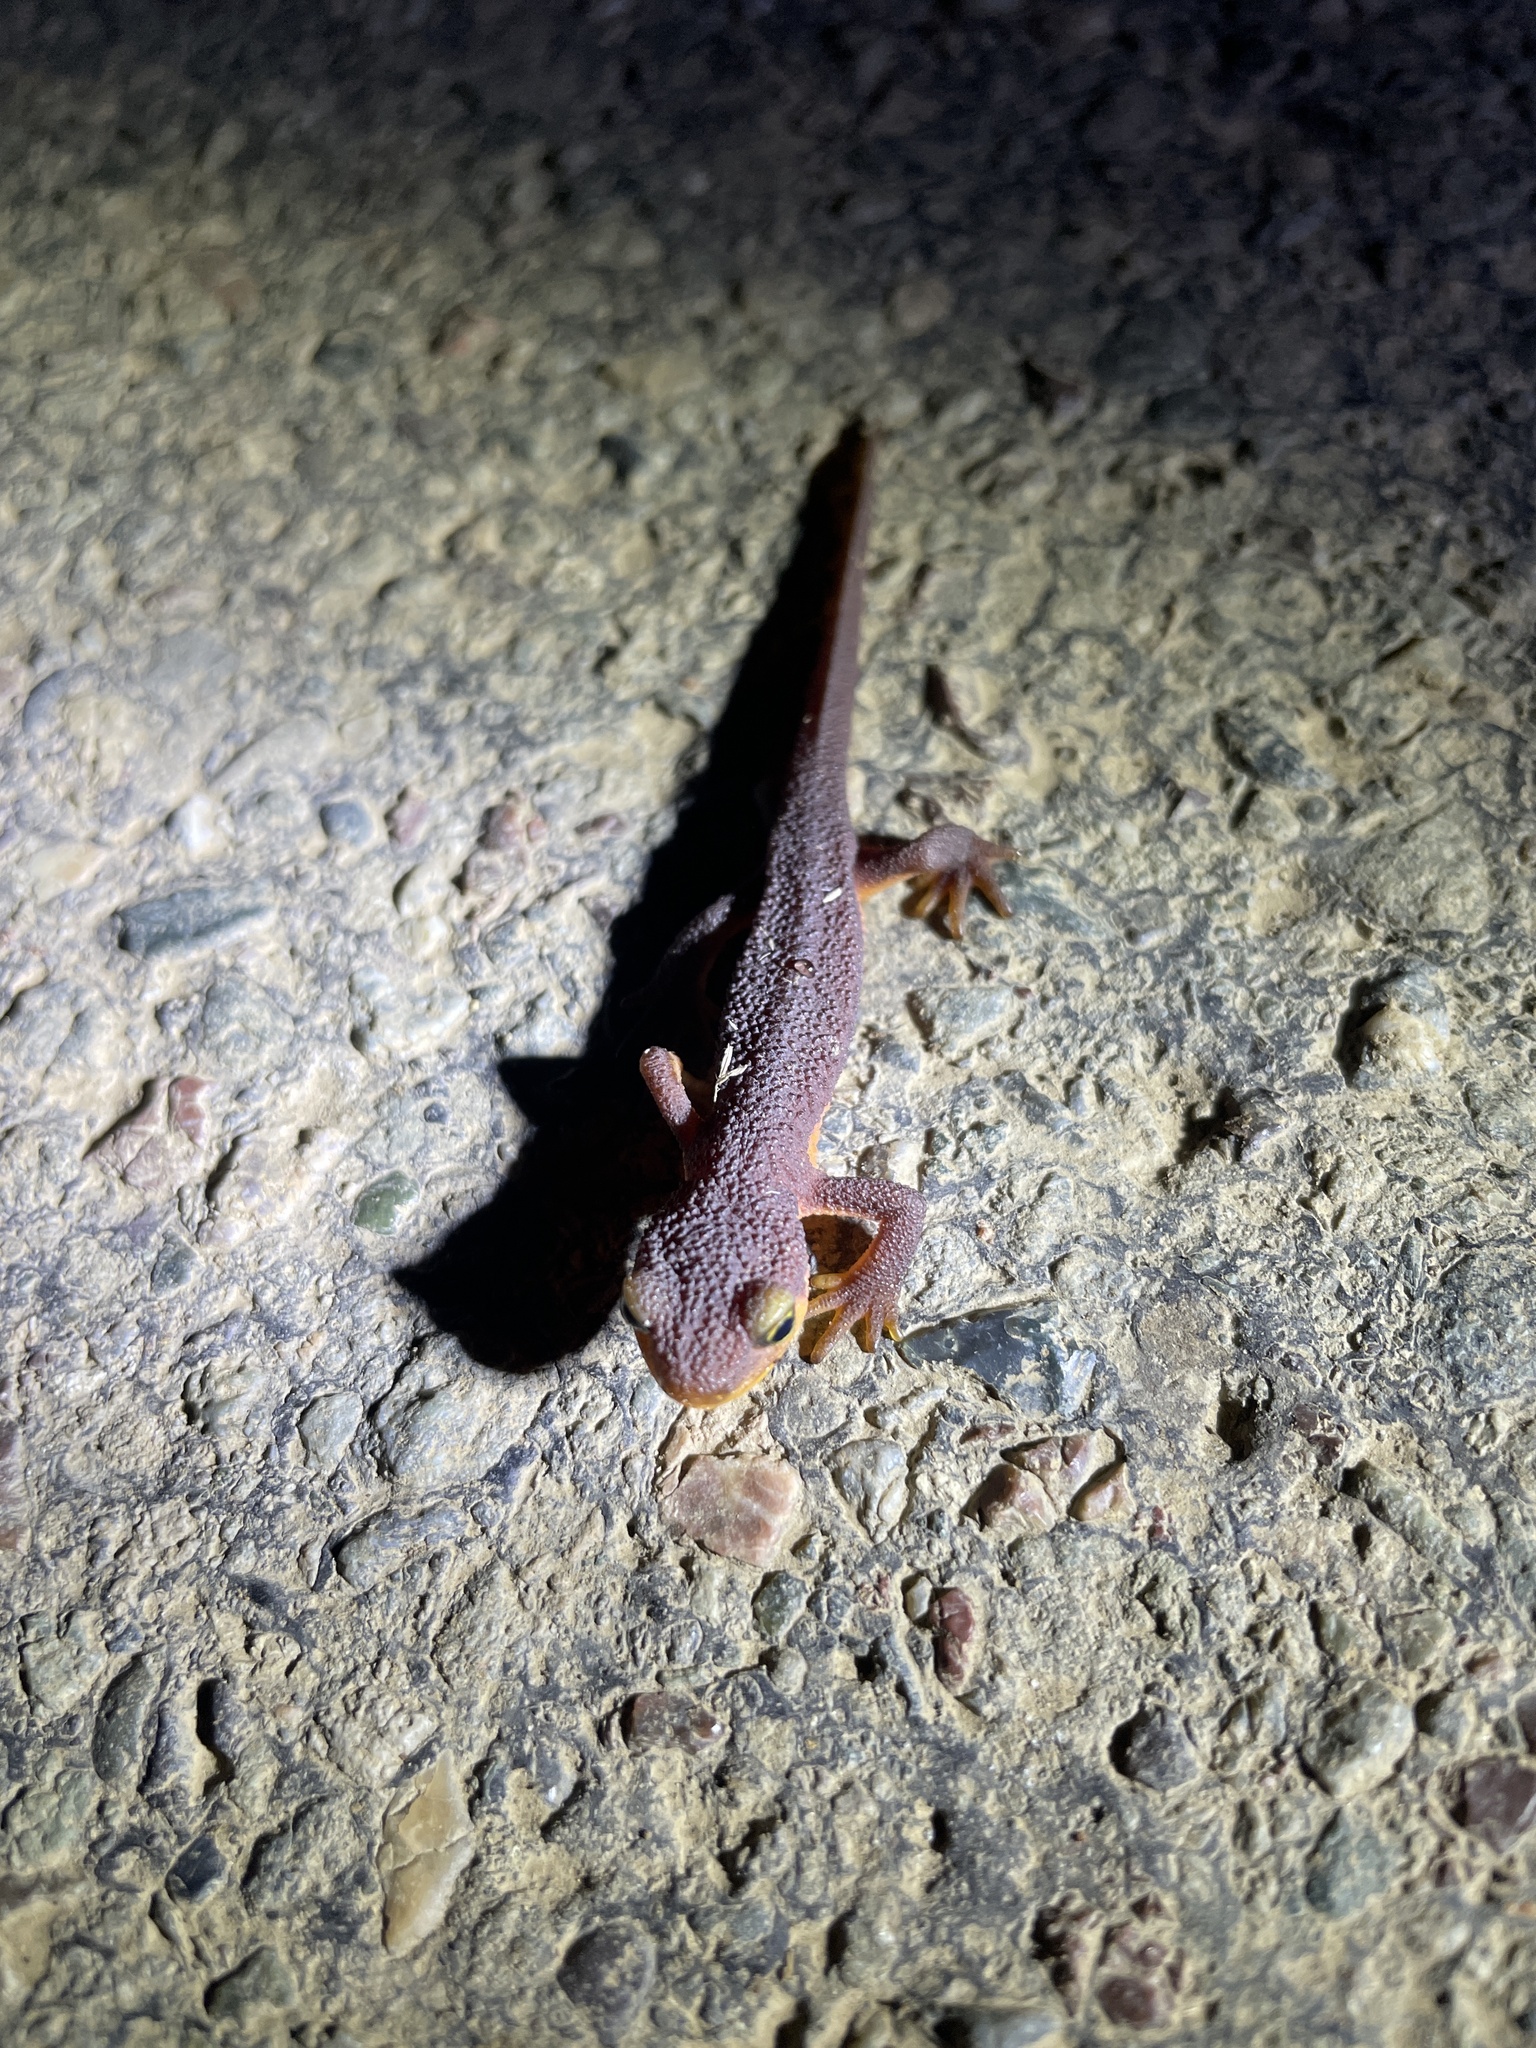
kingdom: Animalia
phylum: Chordata
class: Amphibia
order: Caudata
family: Salamandridae
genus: Taricha
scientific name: Taricha torosa
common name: California newt
